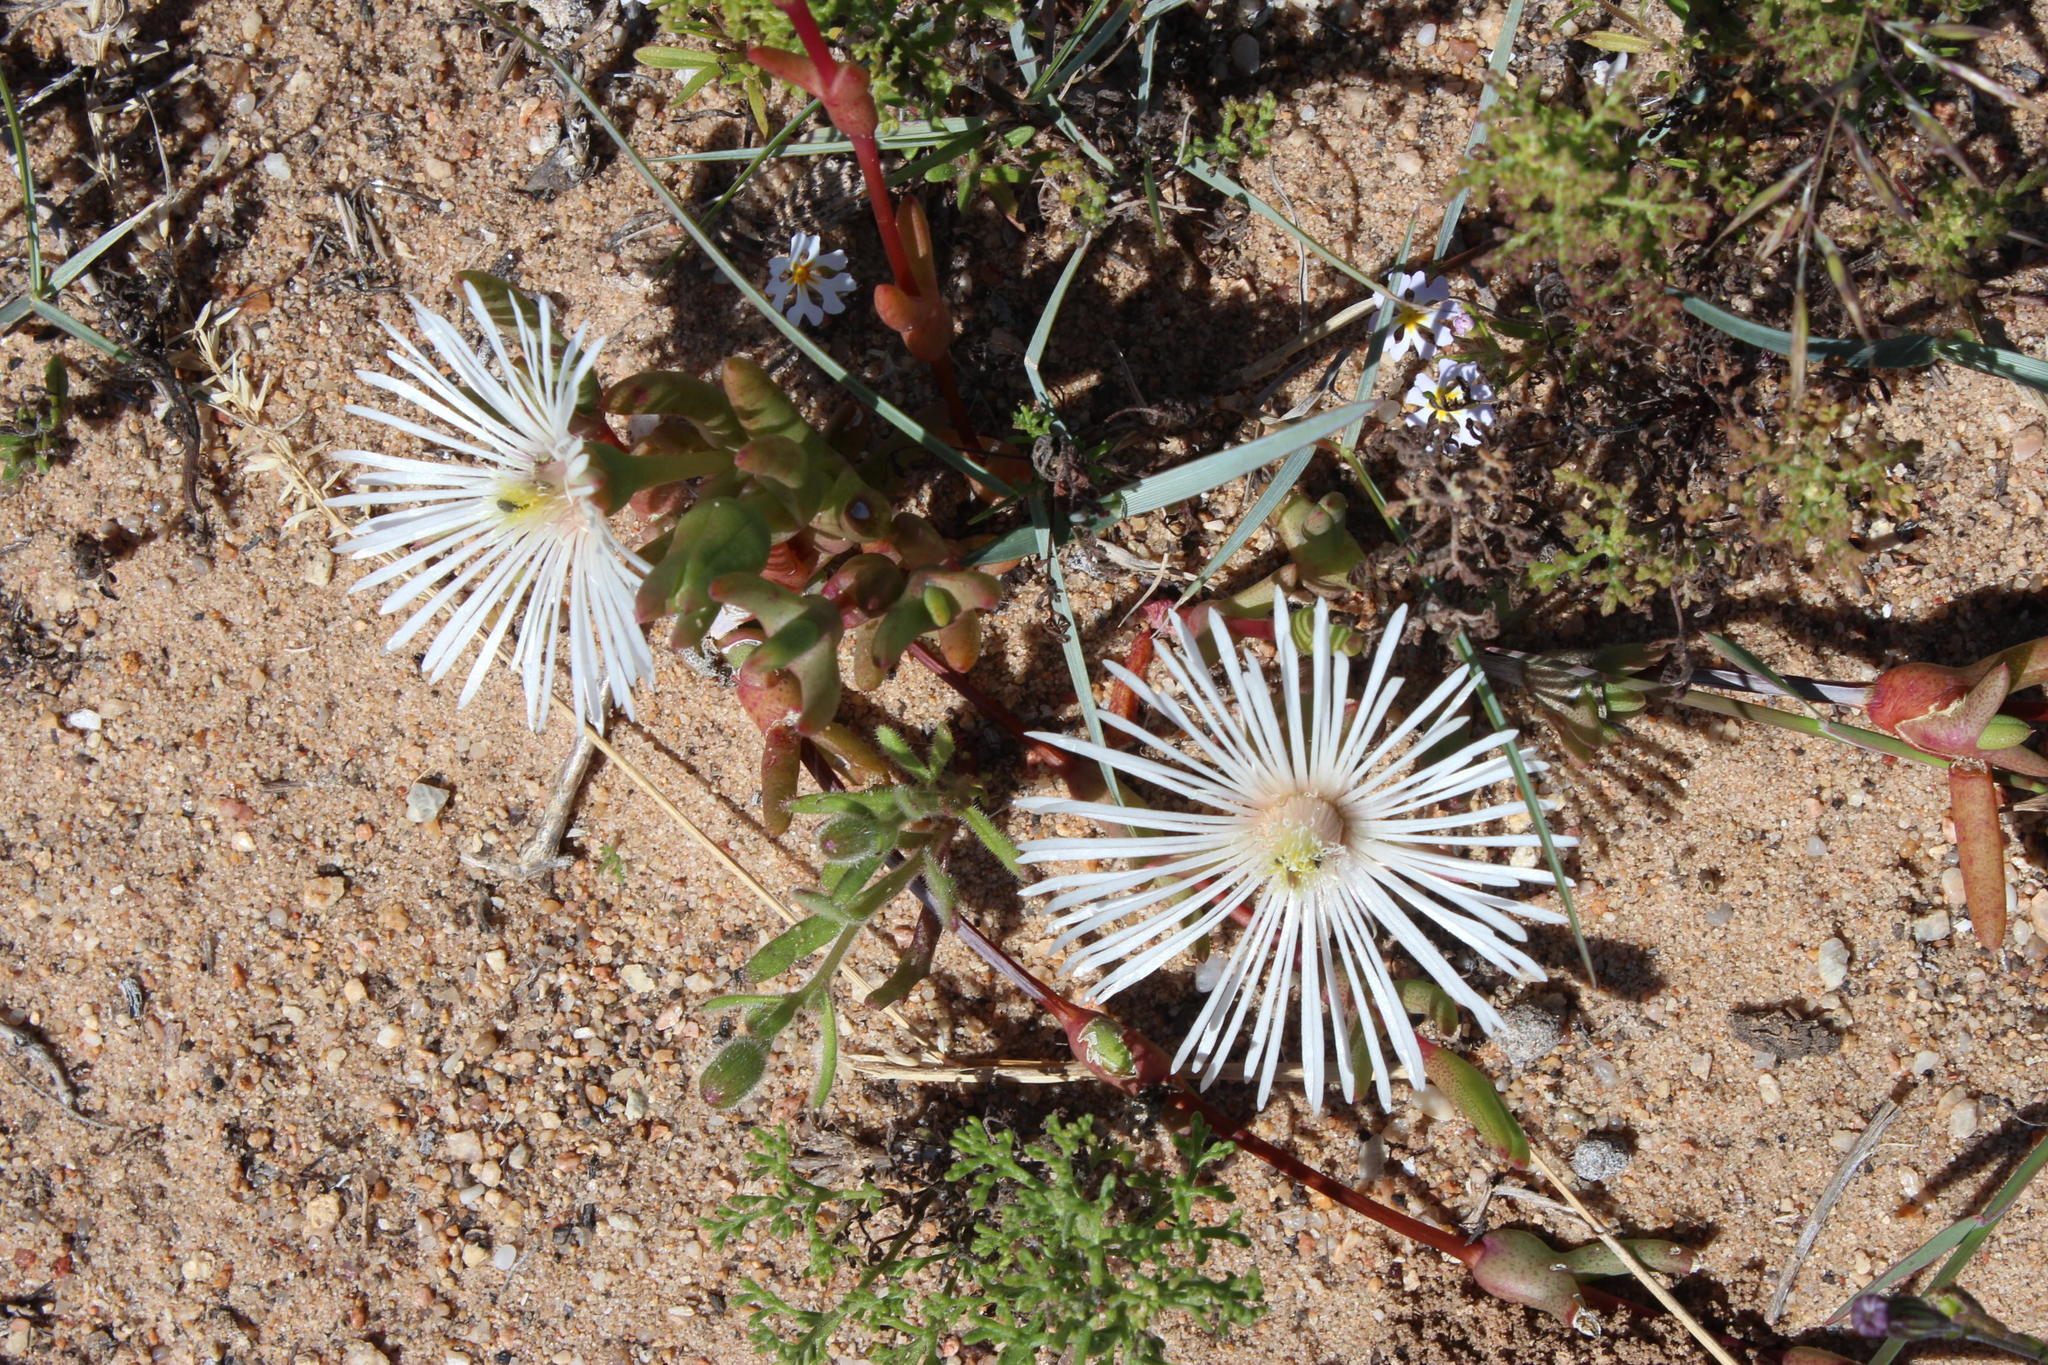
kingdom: Plantae
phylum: Tracheophyta
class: Magnoliopsida
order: Caryophyllales
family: Aizoaceae
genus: Vanzijlia
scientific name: Vanzijlia annulata
